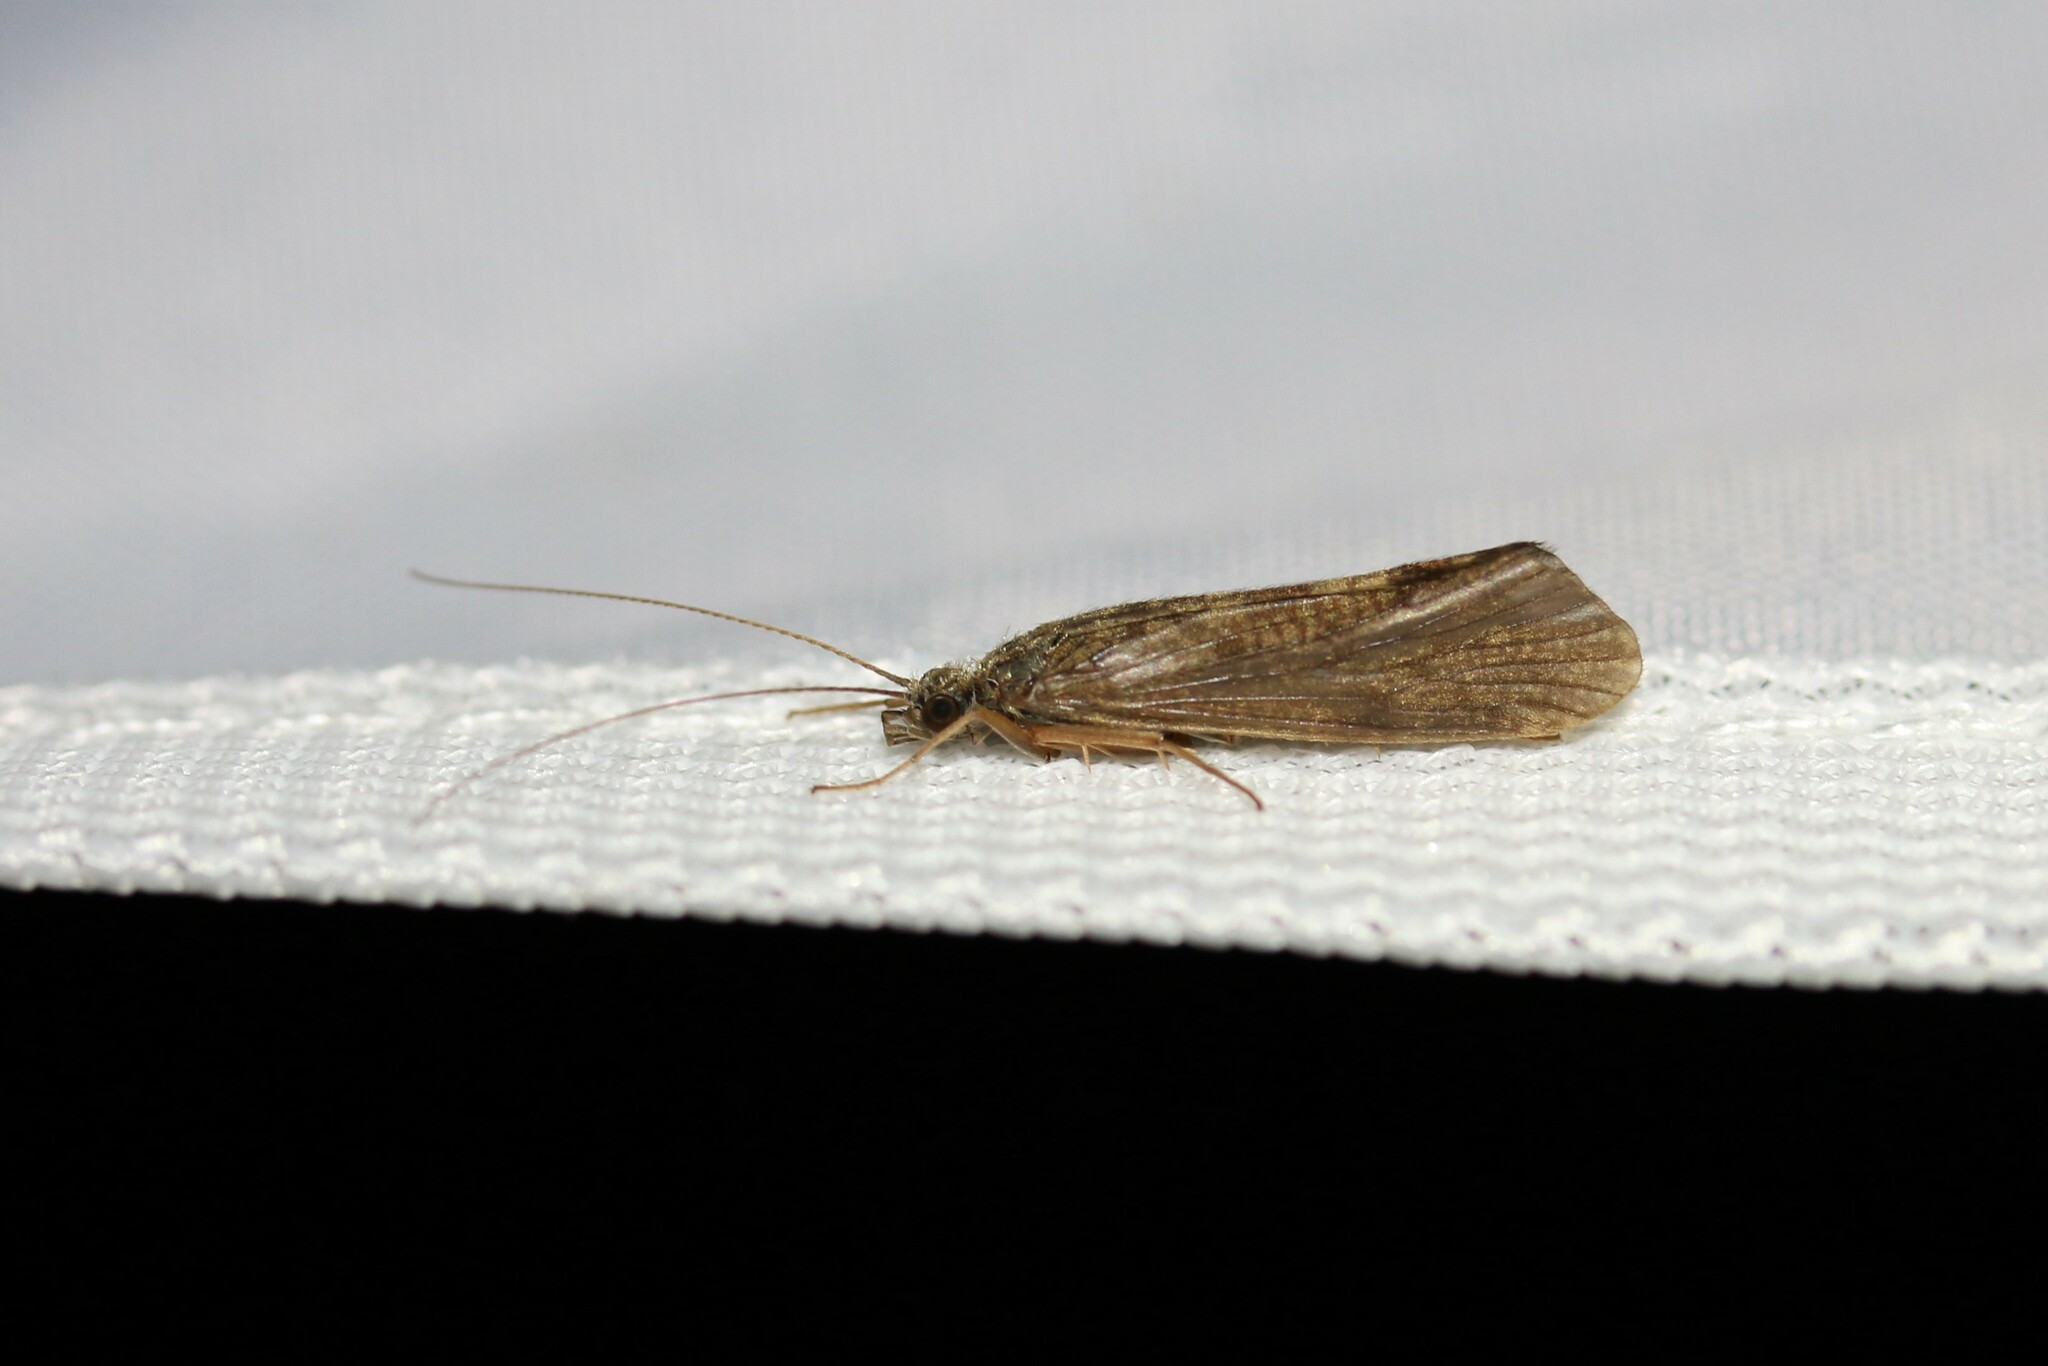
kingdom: Animalia
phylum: Arthropoda
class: Insecta
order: Trichoptera
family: Hydropsychidae
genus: Hydropsyche
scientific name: Hydropsyche
